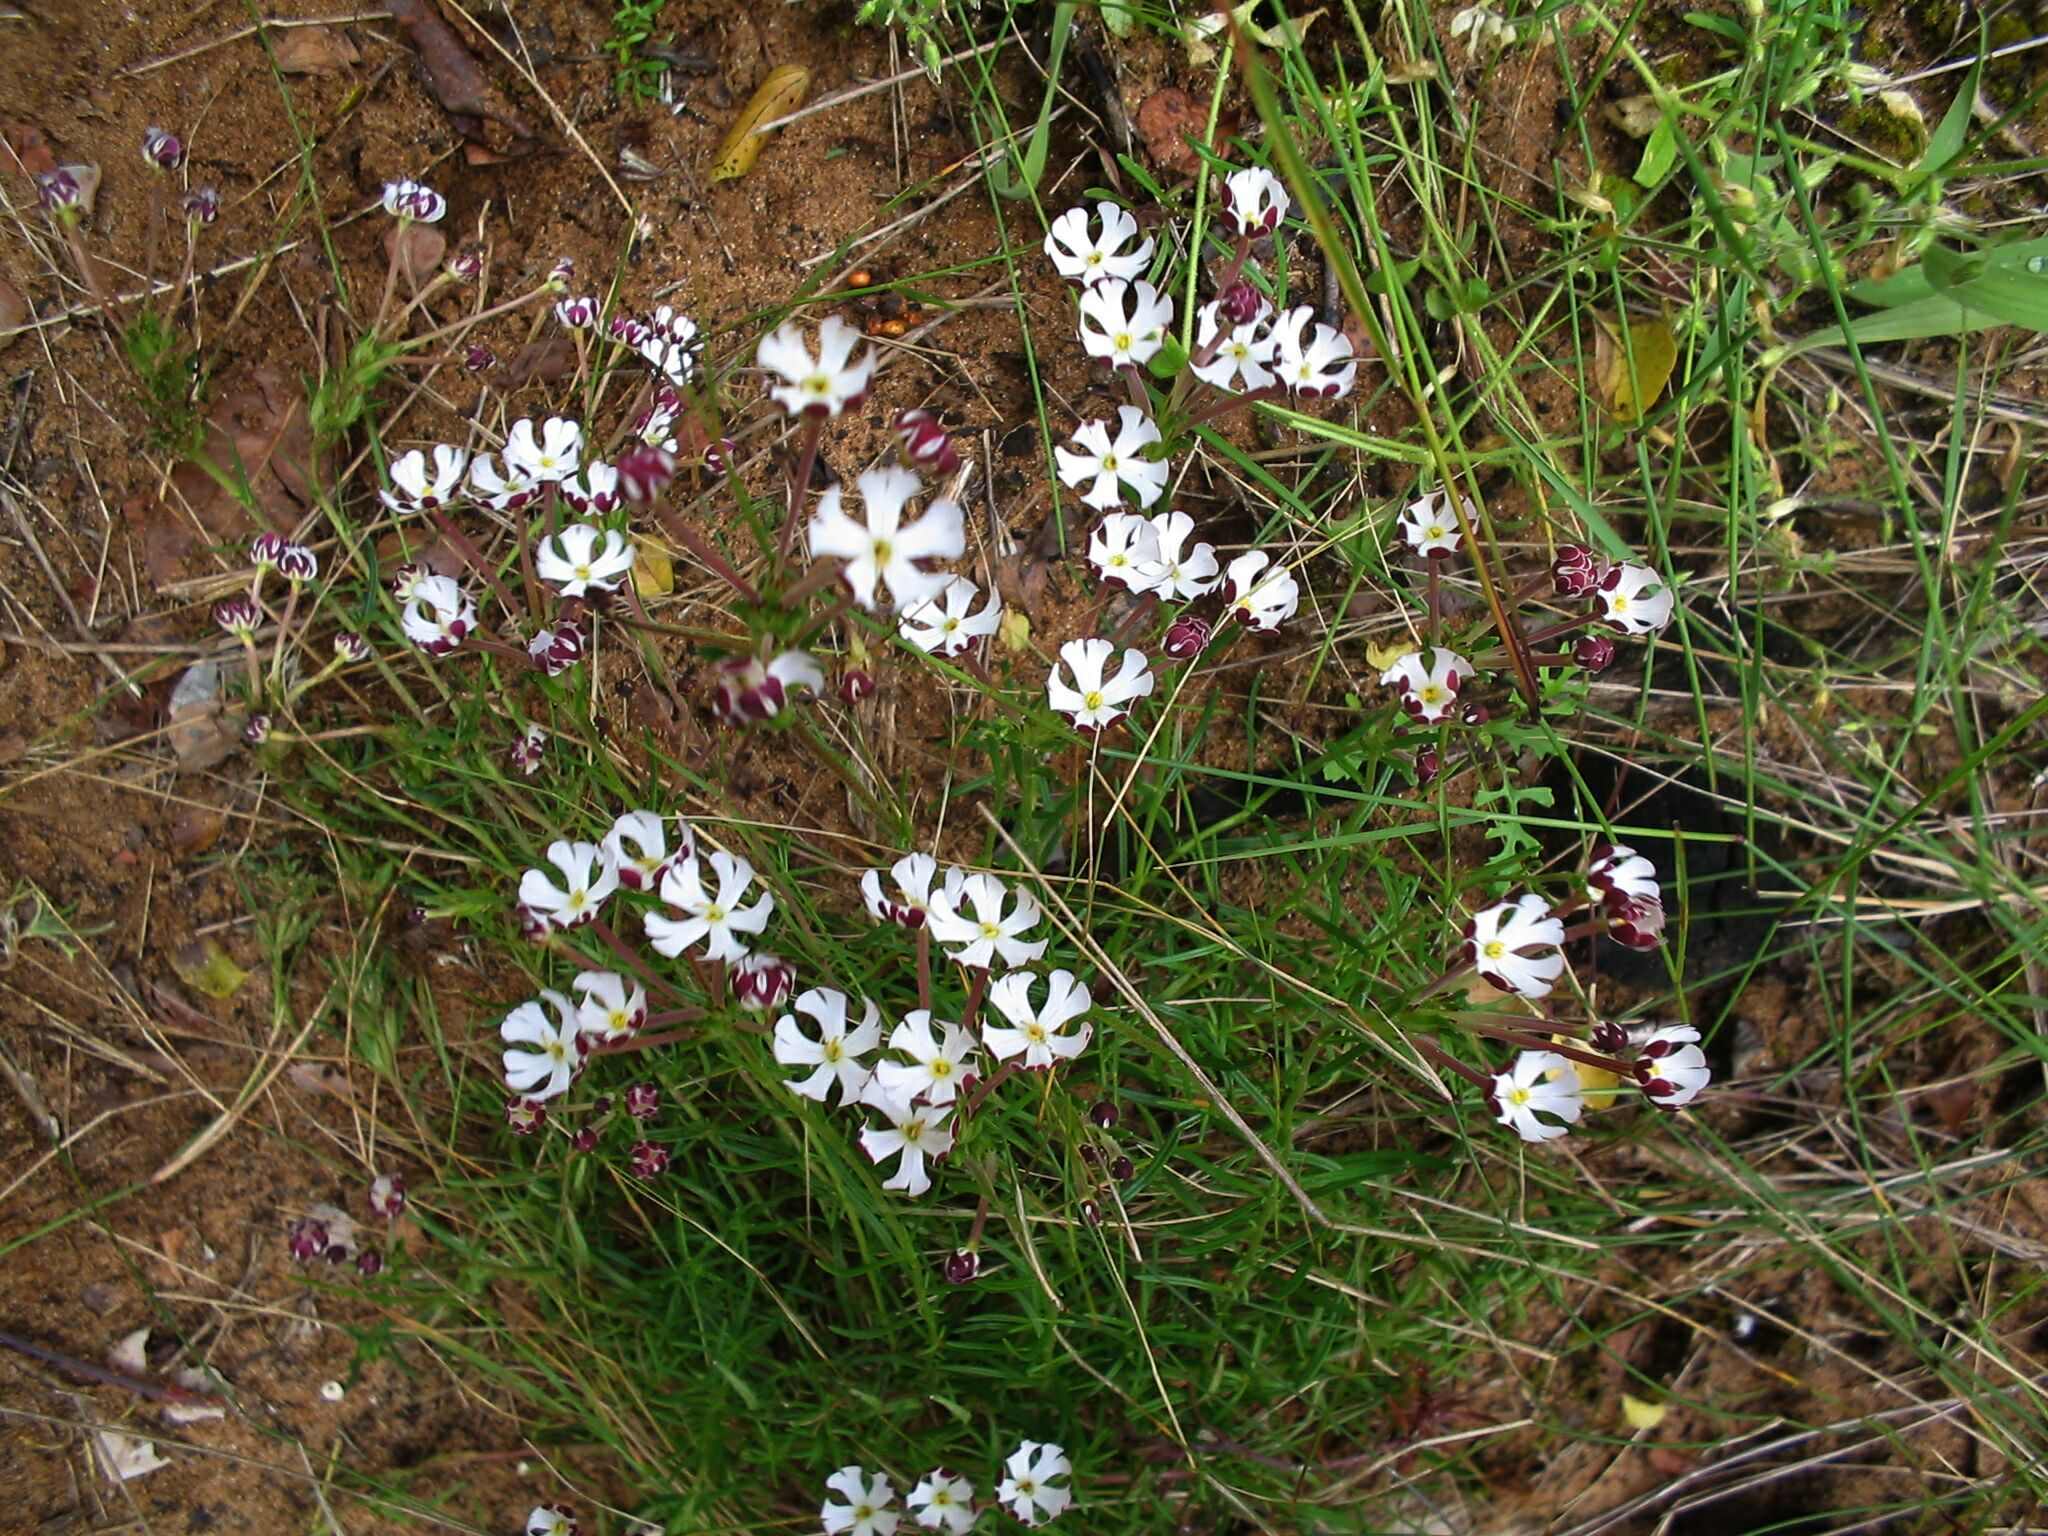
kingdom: Plantae
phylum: Tracheophyta
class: Magnoliopsida
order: Lamiales
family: Scrophulariaceae
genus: Zaluzianskya
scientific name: Zaluzianskya capensis
